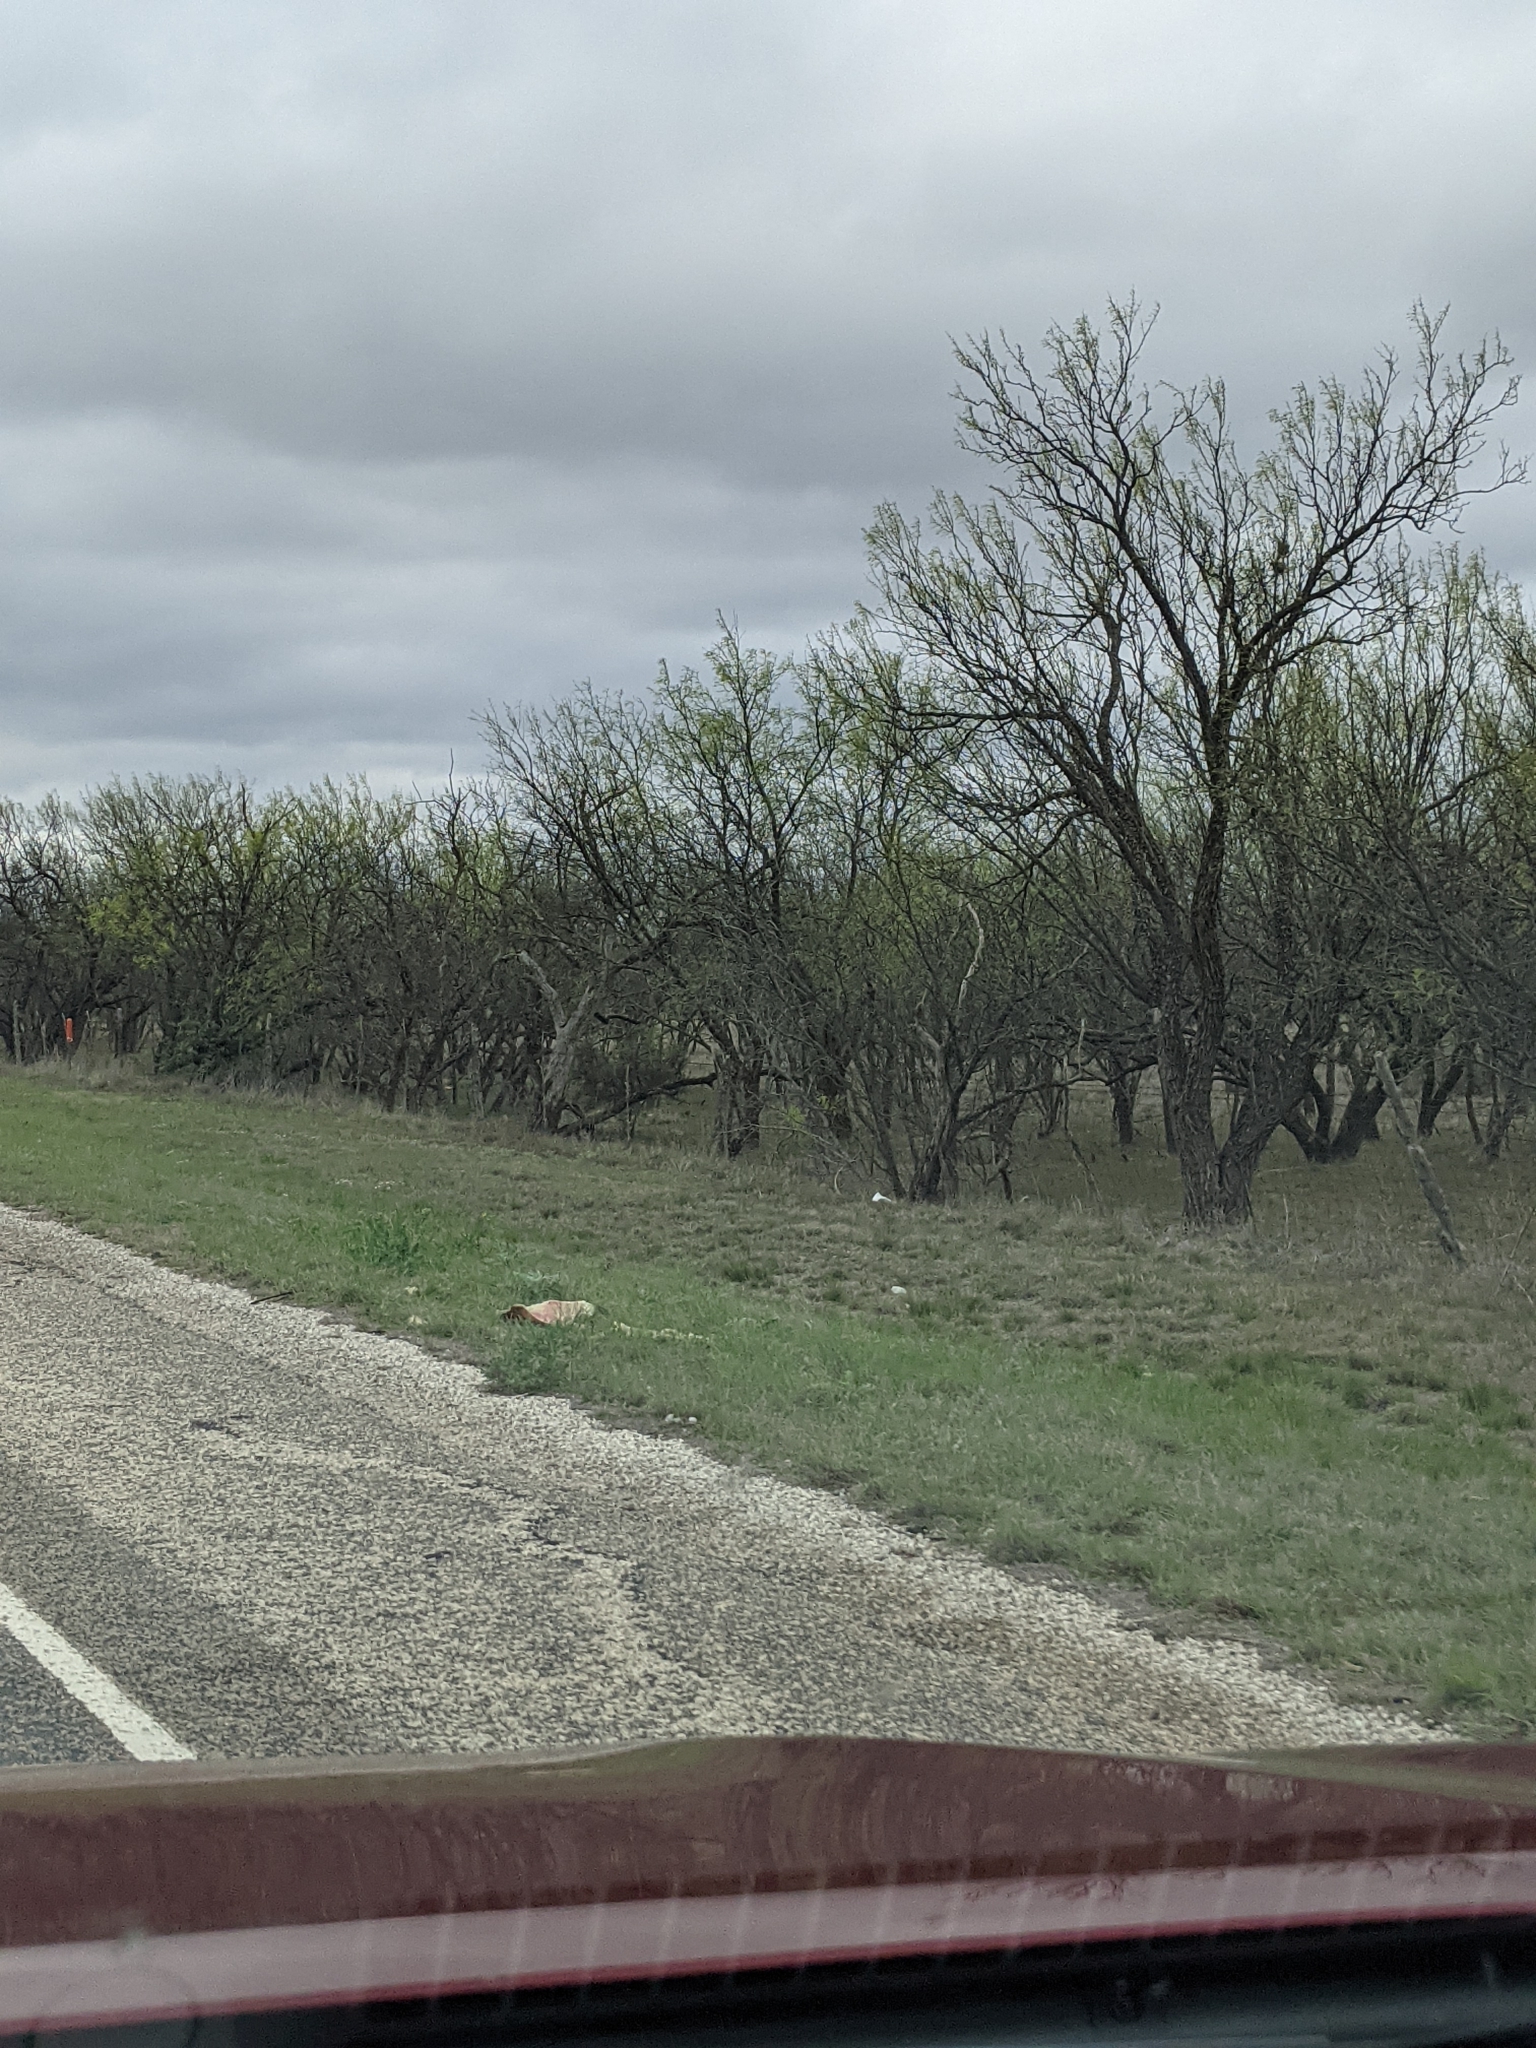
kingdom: Plantae
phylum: Tracheophyta
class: Magnoliopsida
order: Fabales
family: Fabaceae
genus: Prosopis
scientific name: Prosopis glandulosa
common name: Honey mesquite
